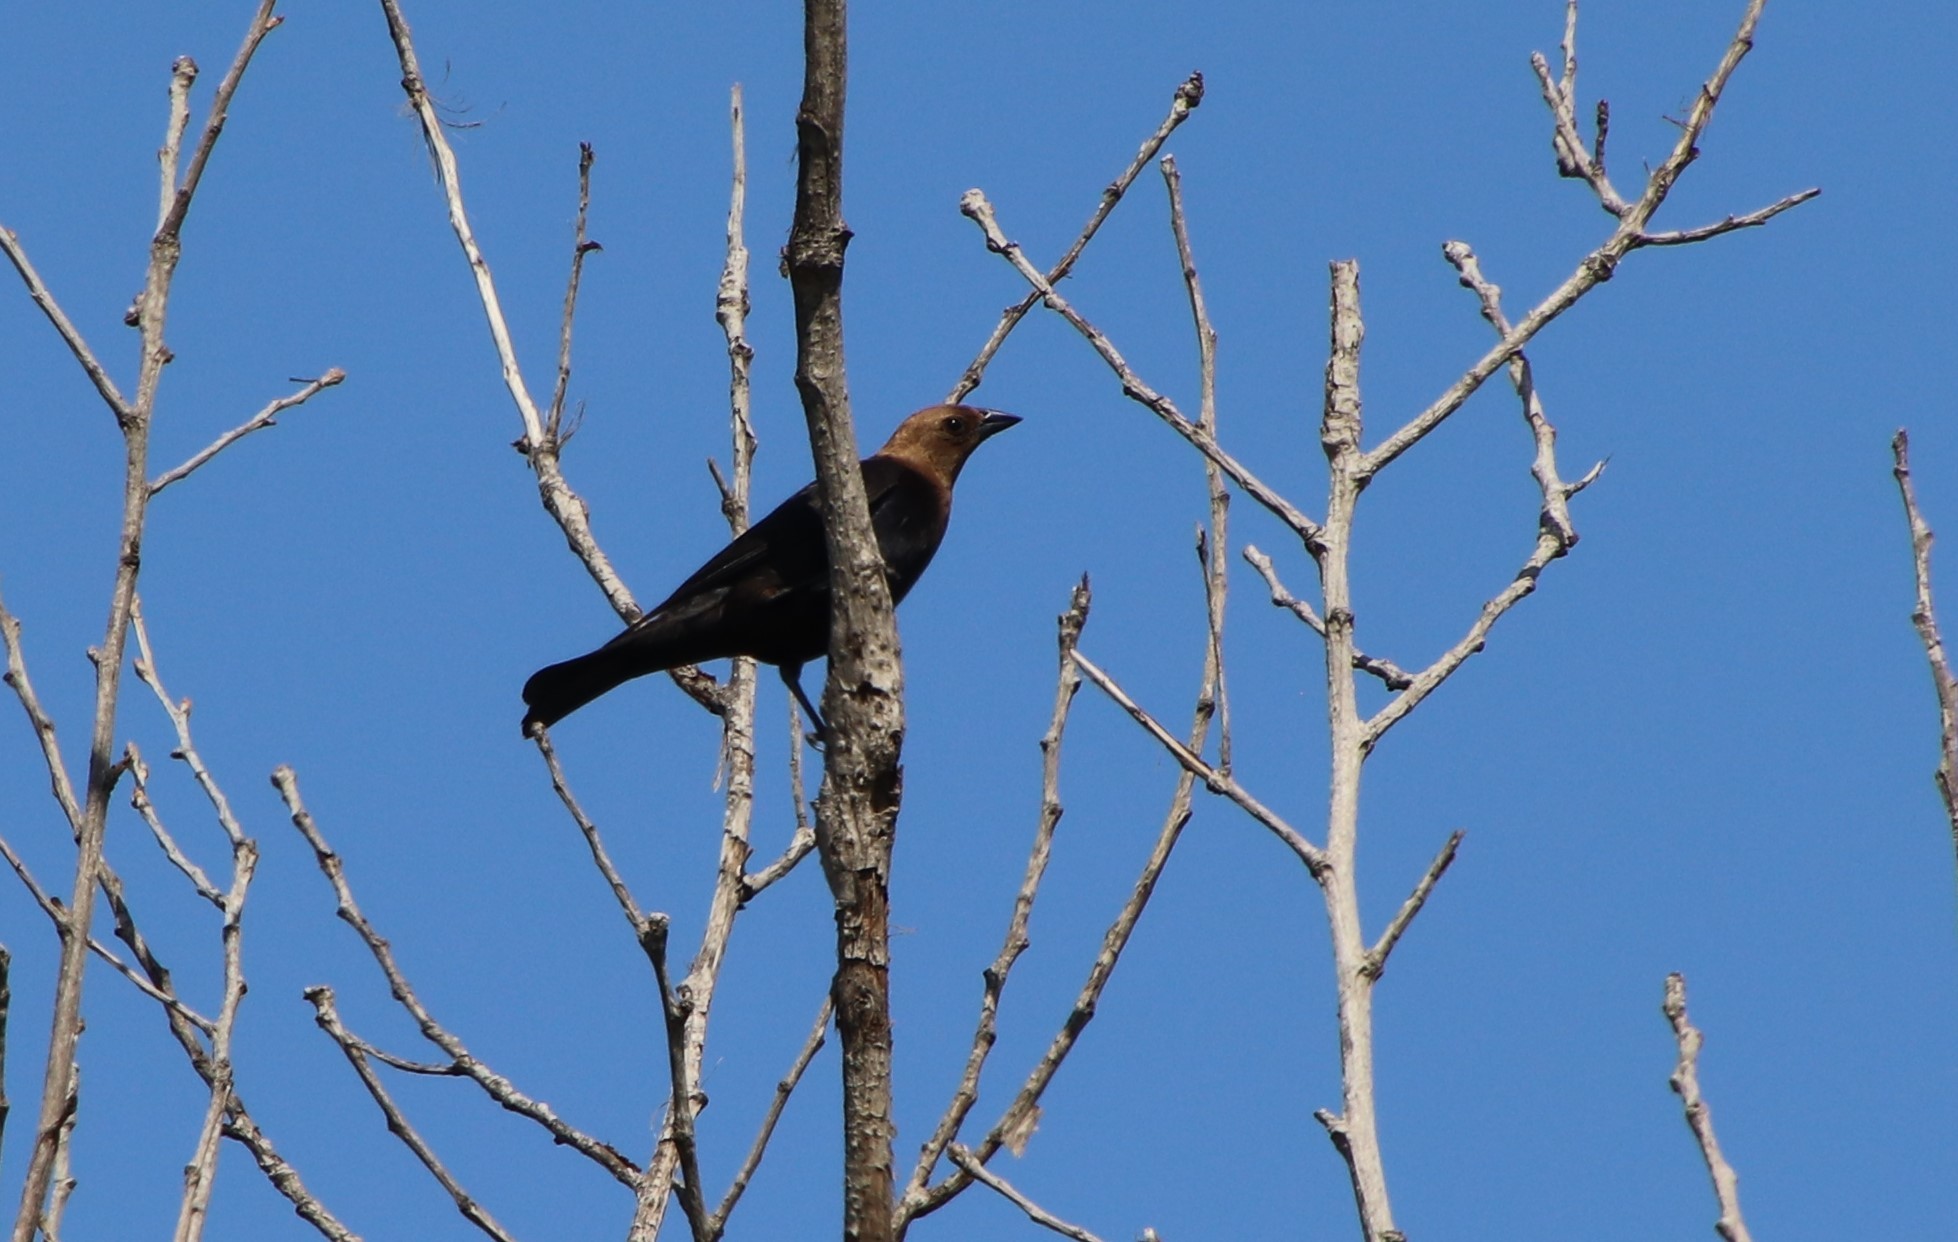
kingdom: Animalia
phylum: Chordata
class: Aves
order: Passeriformes
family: Icteridae
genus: Molothrus
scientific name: Molothrus ater
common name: Brown-headed cowbird
